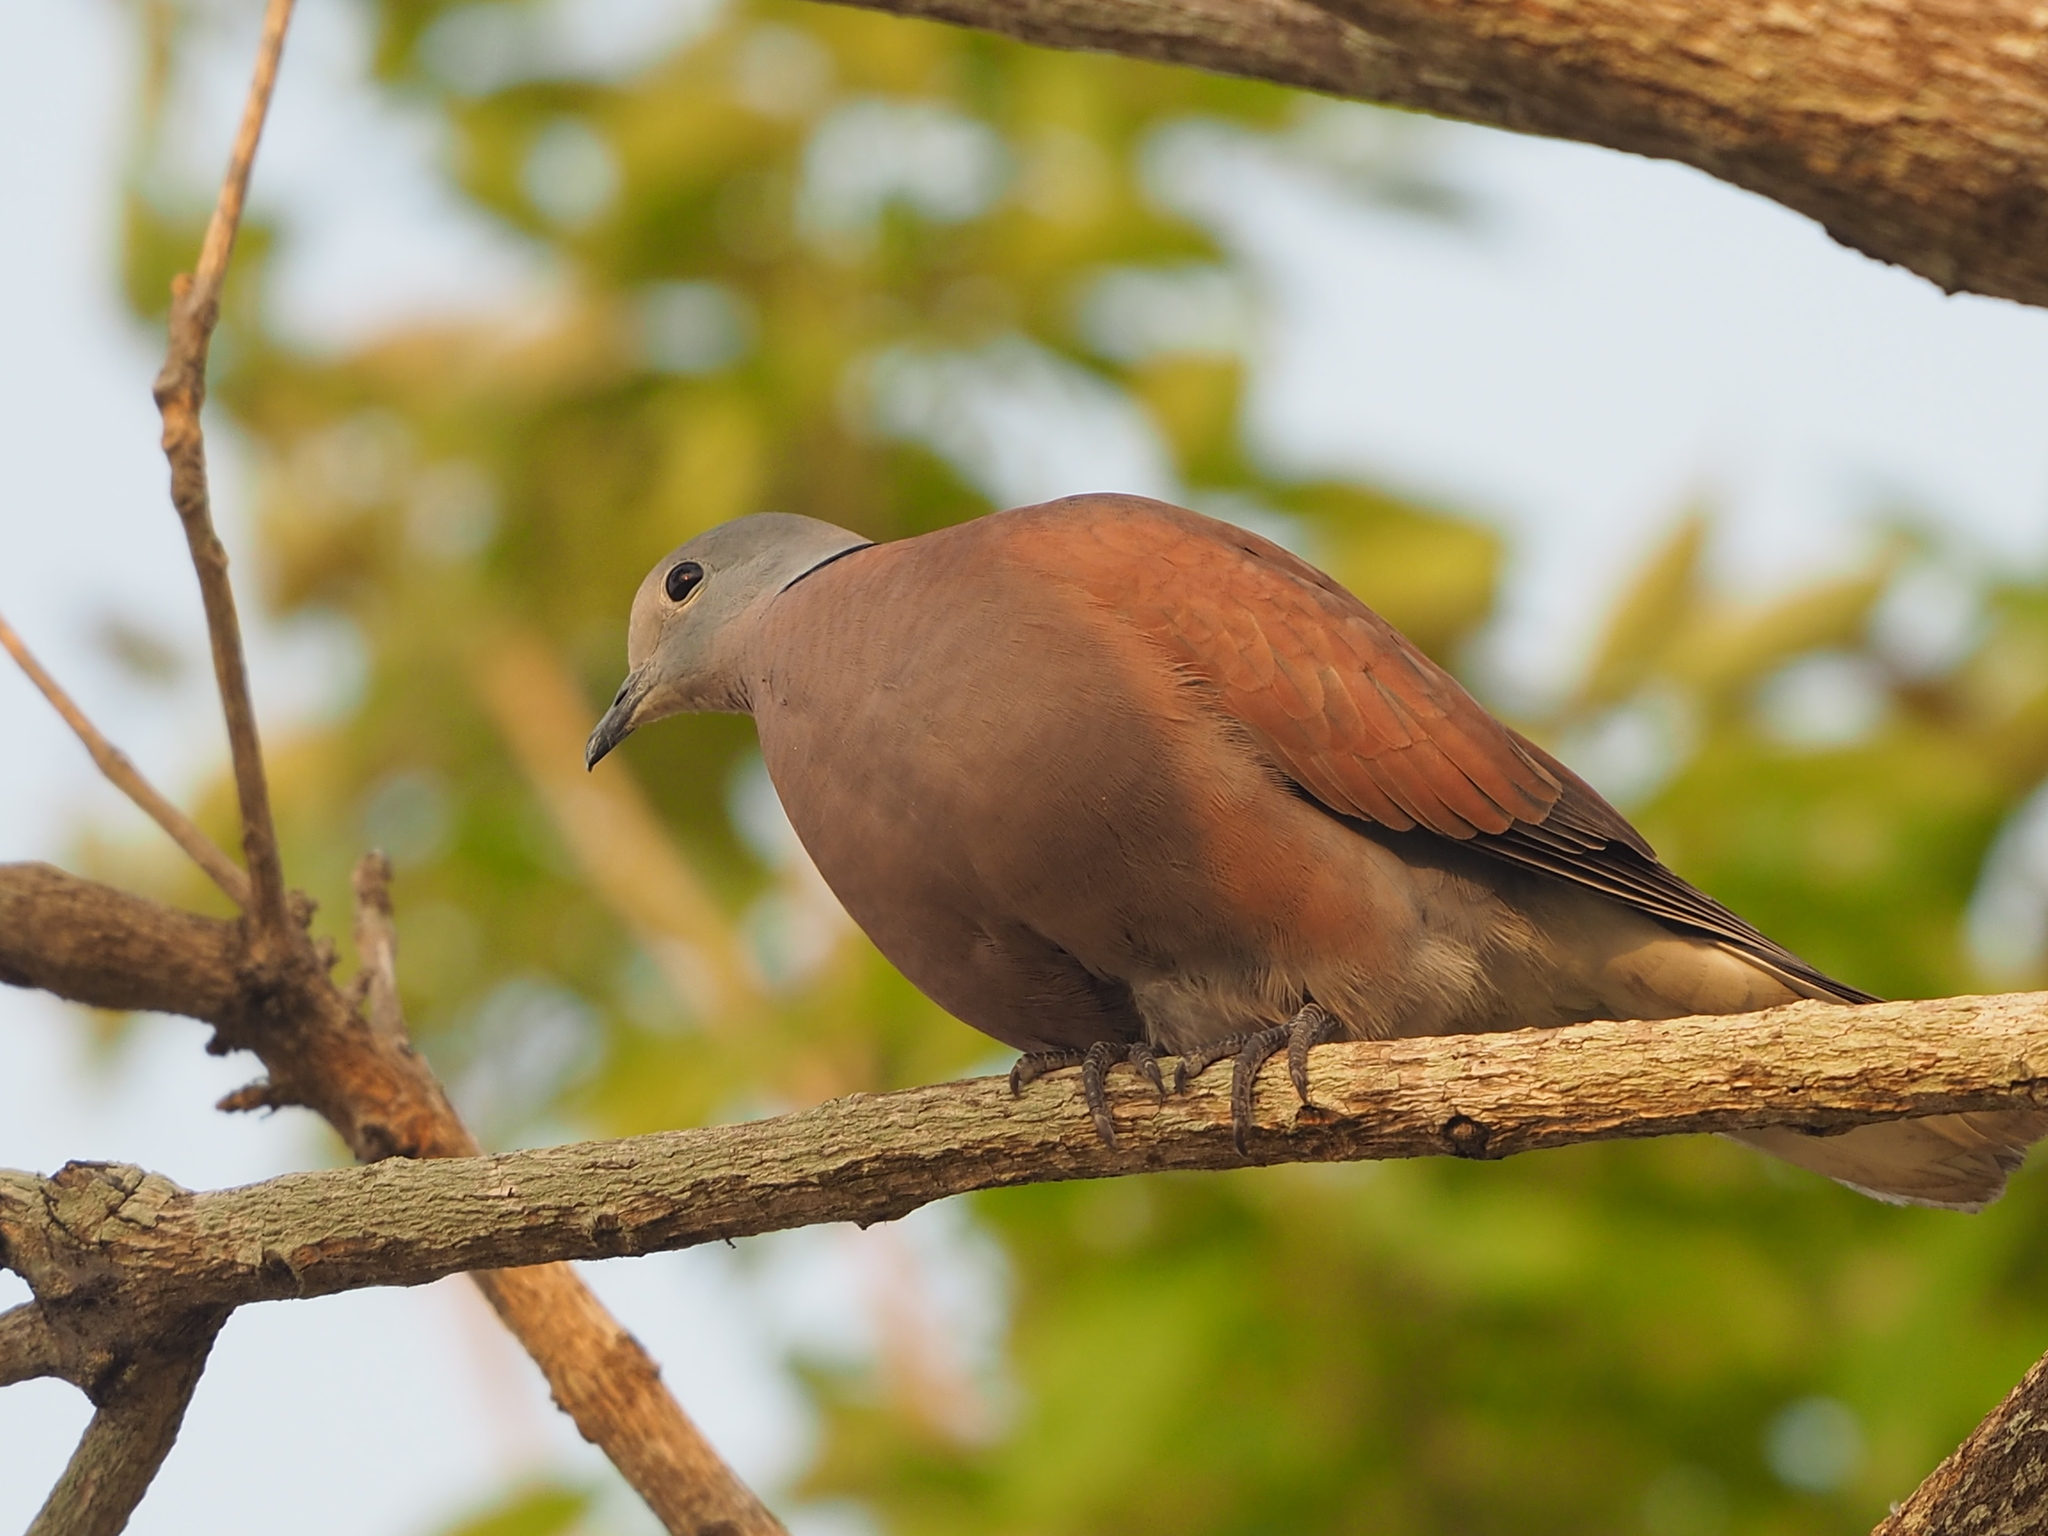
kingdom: Animalia
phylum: Chordata
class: Aves
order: Columbiformes
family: Columbidae
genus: Streptopelia
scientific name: Streptopelia tranquebarica
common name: Red turtle dove
